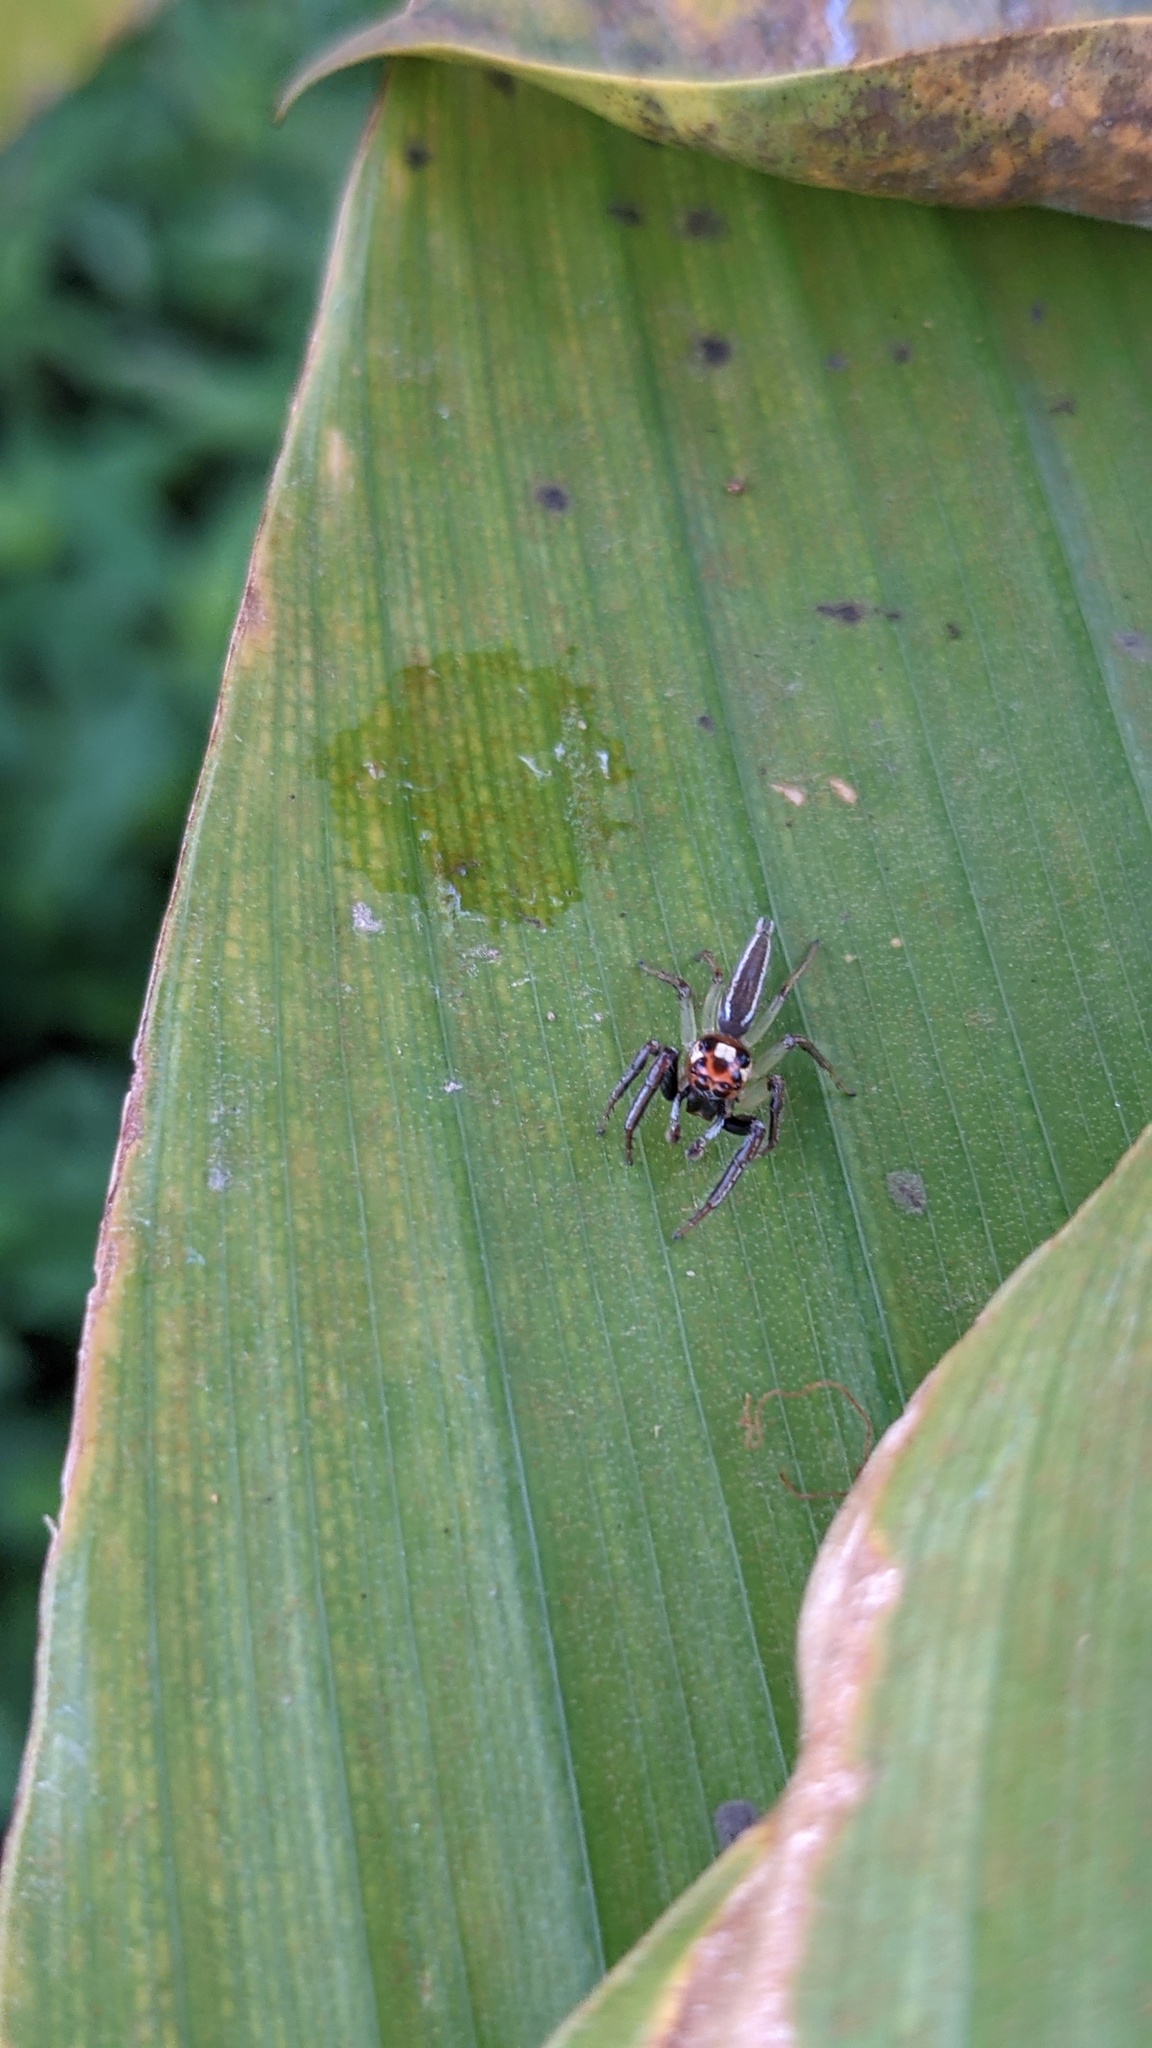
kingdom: Animalia
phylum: Arthropoda
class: Arachnida
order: Araneae
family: Salticidae
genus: Colonus
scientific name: Colonus sylvanus
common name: Jumping spiders
